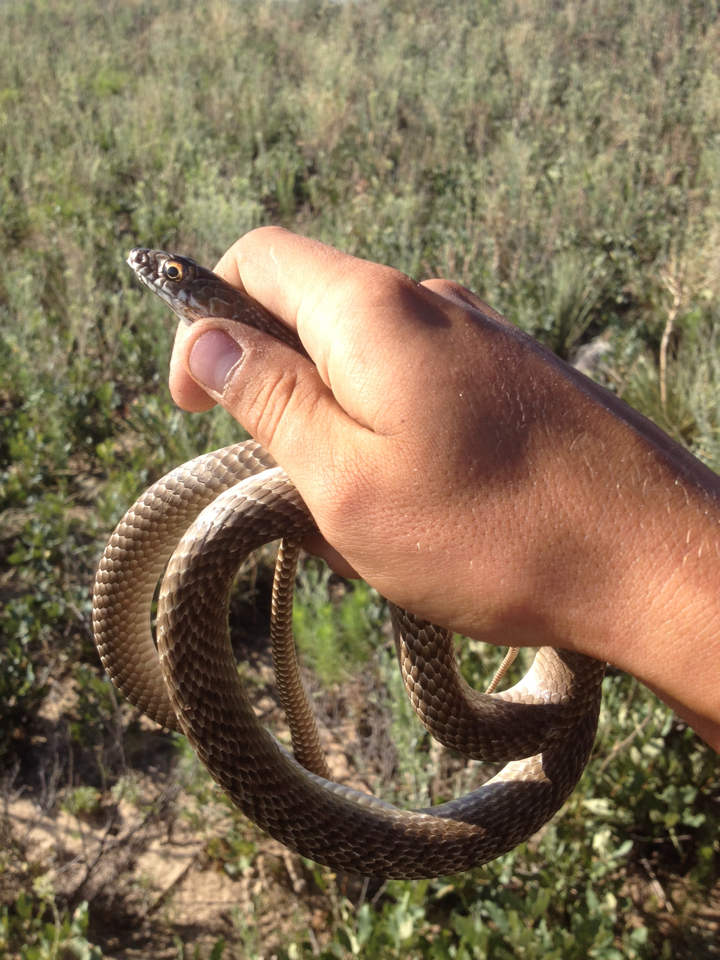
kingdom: Animalia
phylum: Chordata
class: Squamata
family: Colubridae
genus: Masticophis
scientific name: Masticophis flagellum
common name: Coachwhip
